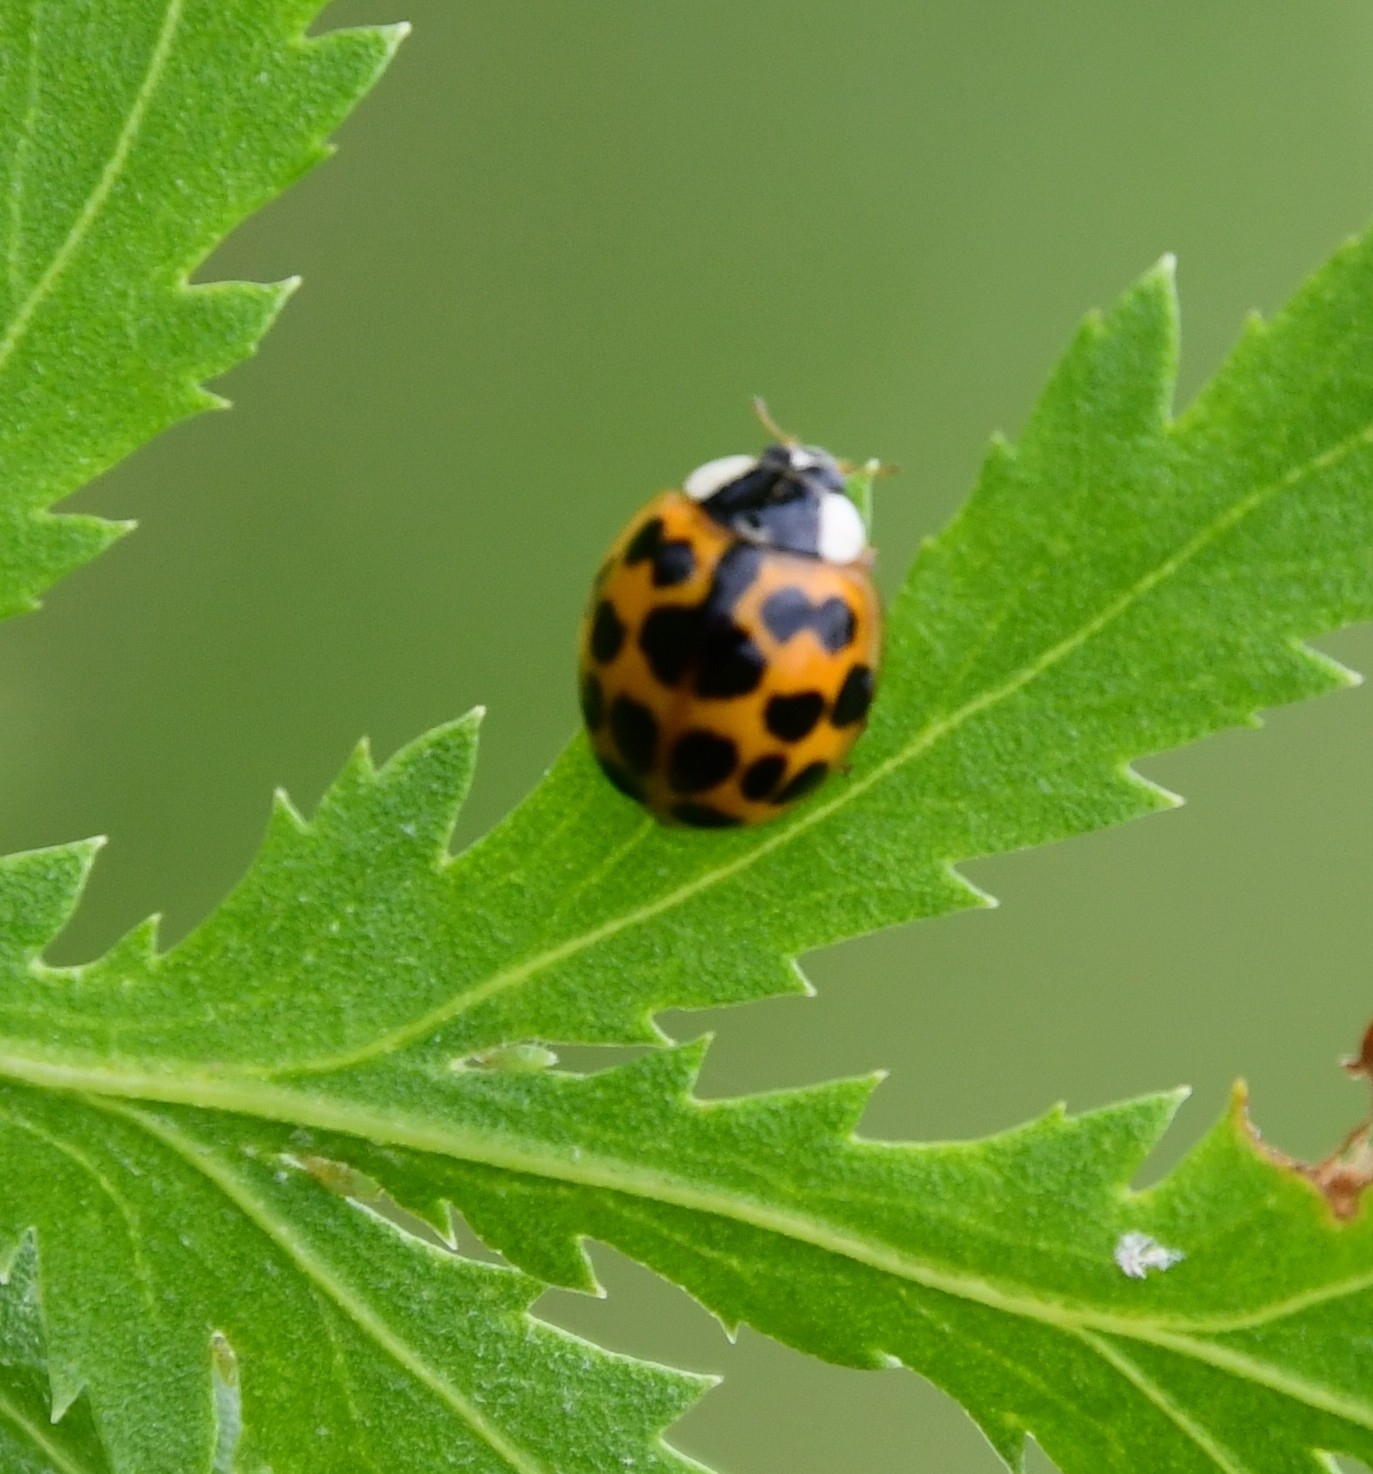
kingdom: Animalia
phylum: Arthropoda
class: Insecta
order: Coleoptera
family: Coccinellidae
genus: Harmonia
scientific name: Harmonia axyridis
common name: Harlequin ladybird
